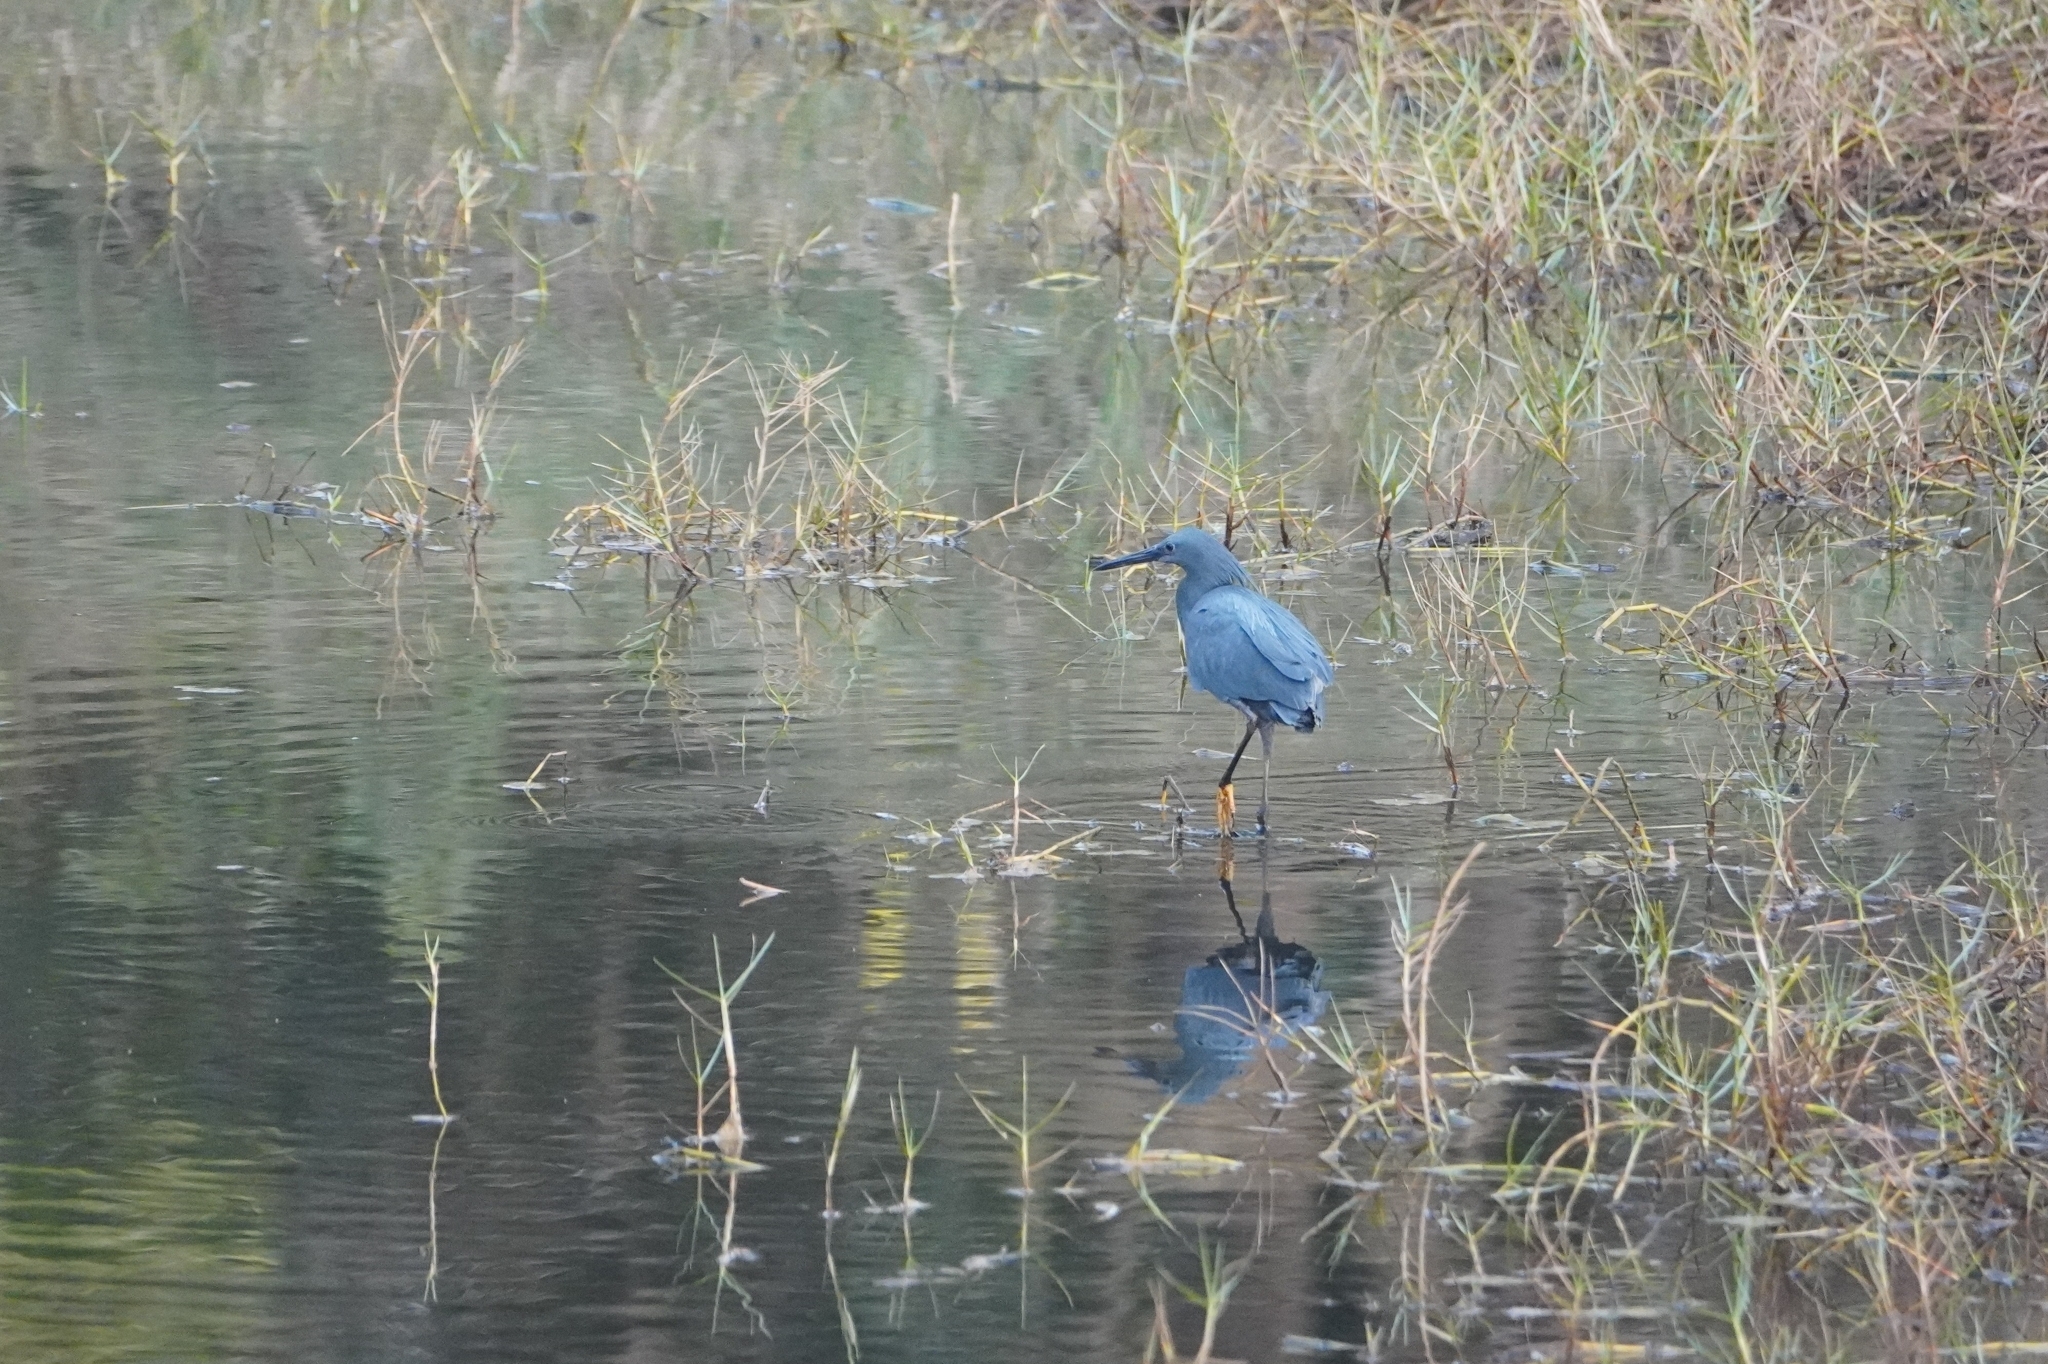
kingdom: Animalia
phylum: Chordata
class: Aves
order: Pelecaniformes
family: Ardeidae
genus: Egretta
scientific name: Egretta ardesiaca
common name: Black heron
